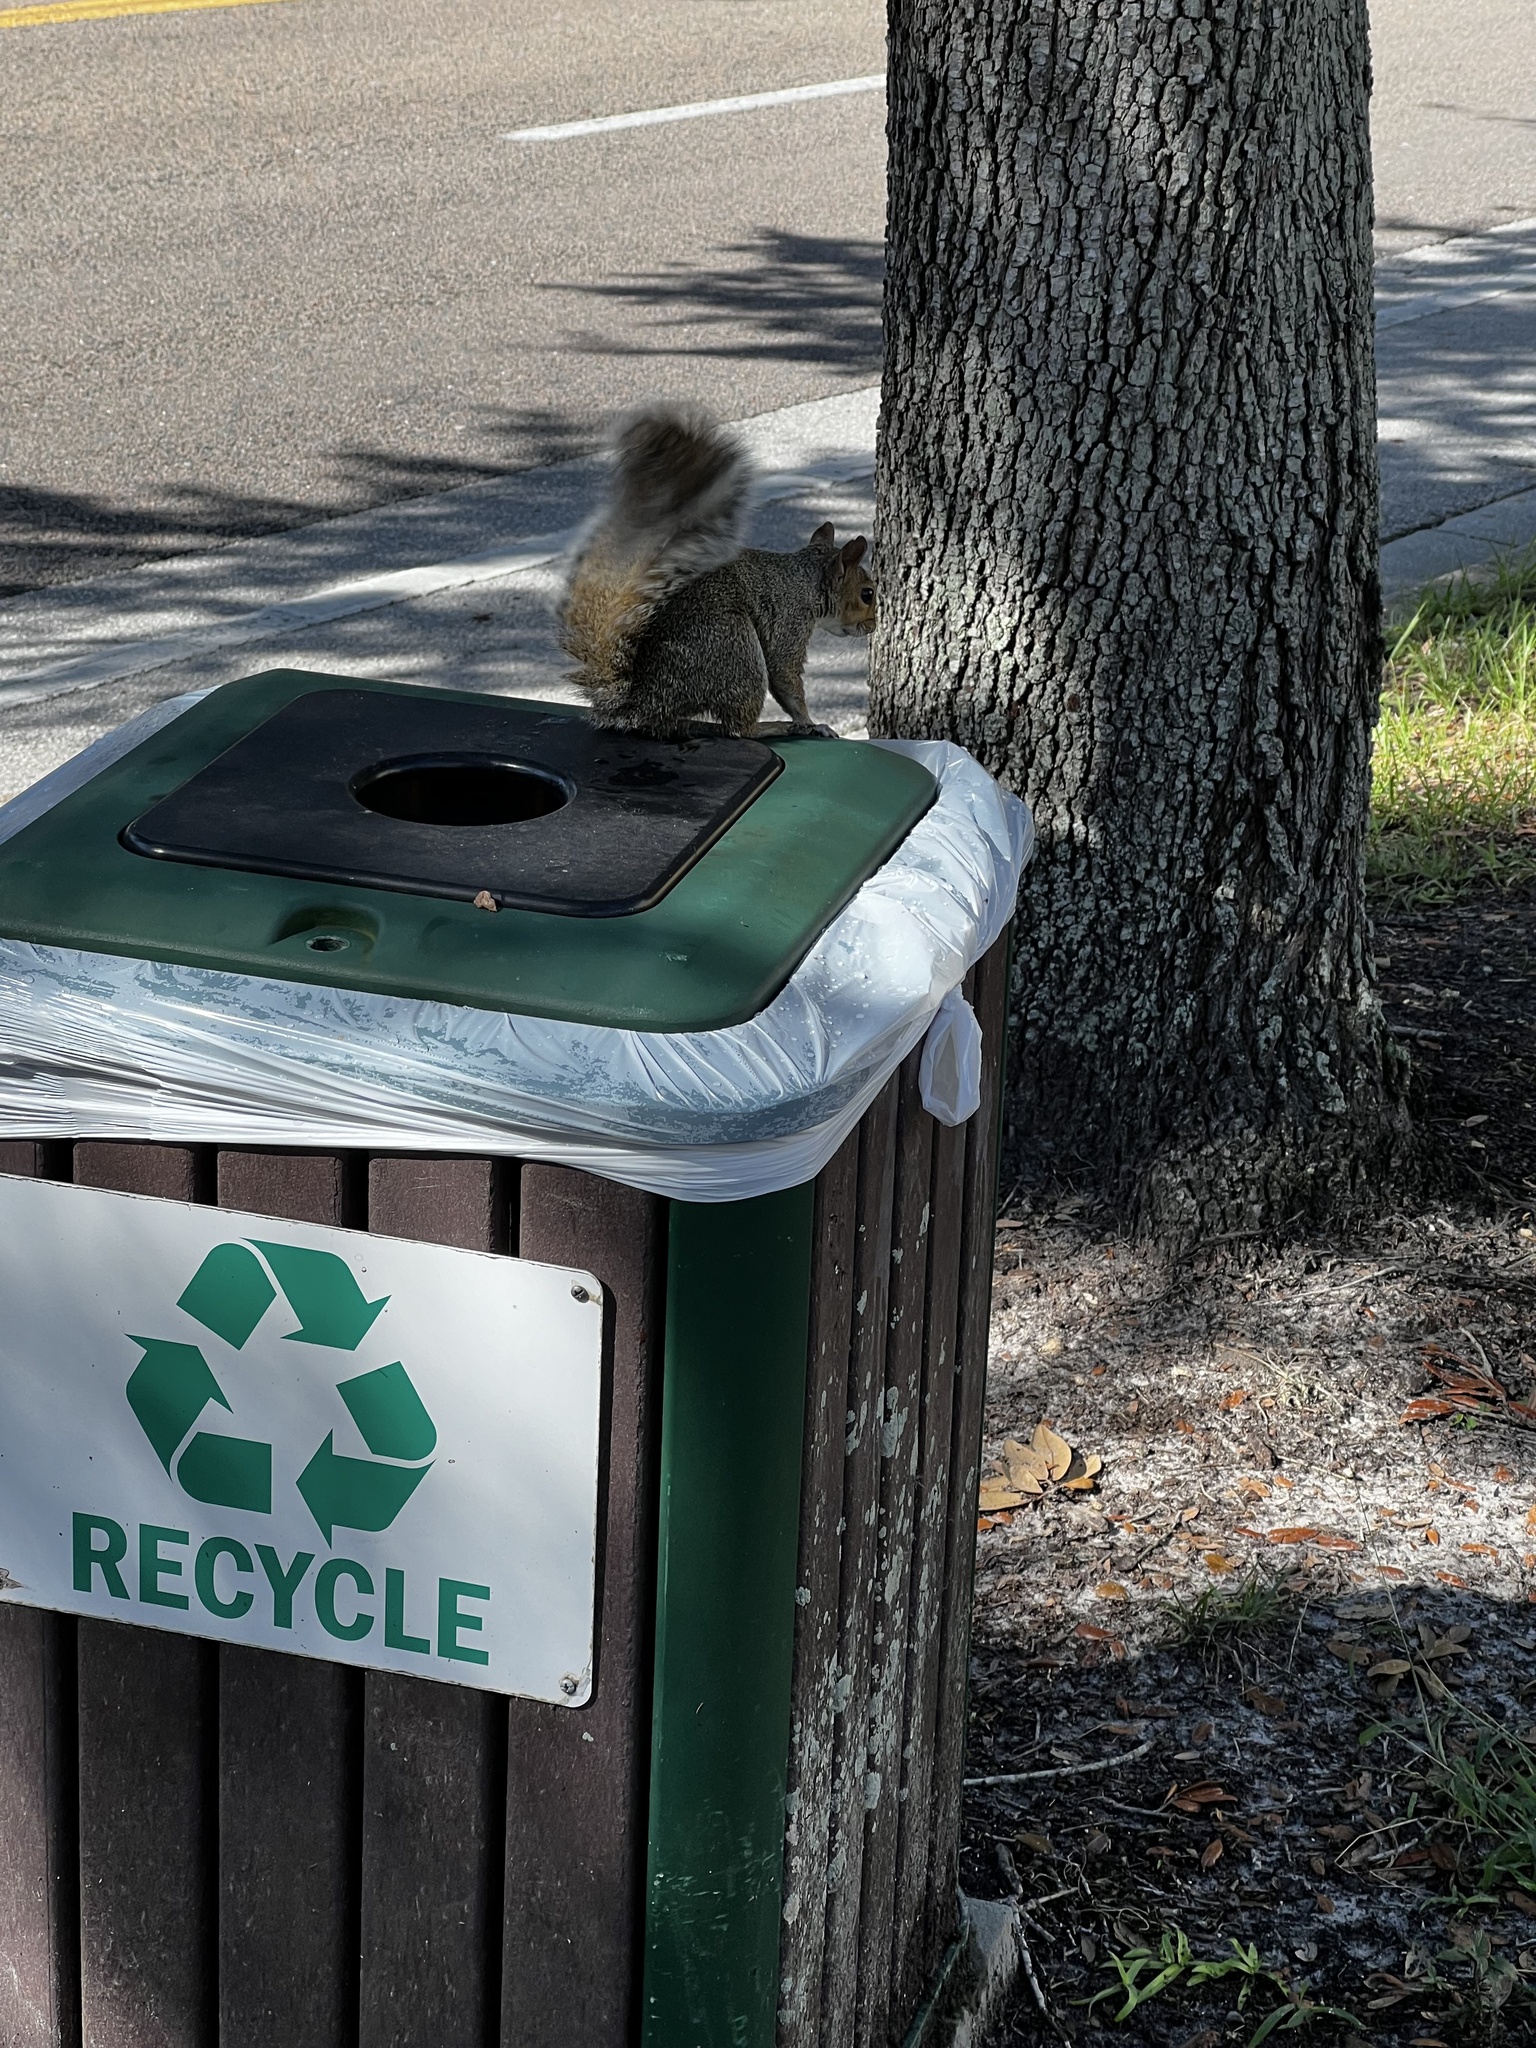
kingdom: Animalia
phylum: Chordata
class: Mammalia
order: Rodentia
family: Sciuridae
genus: Sciurus
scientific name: Sciurus carolinensis
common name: Eastern gray squirrel
